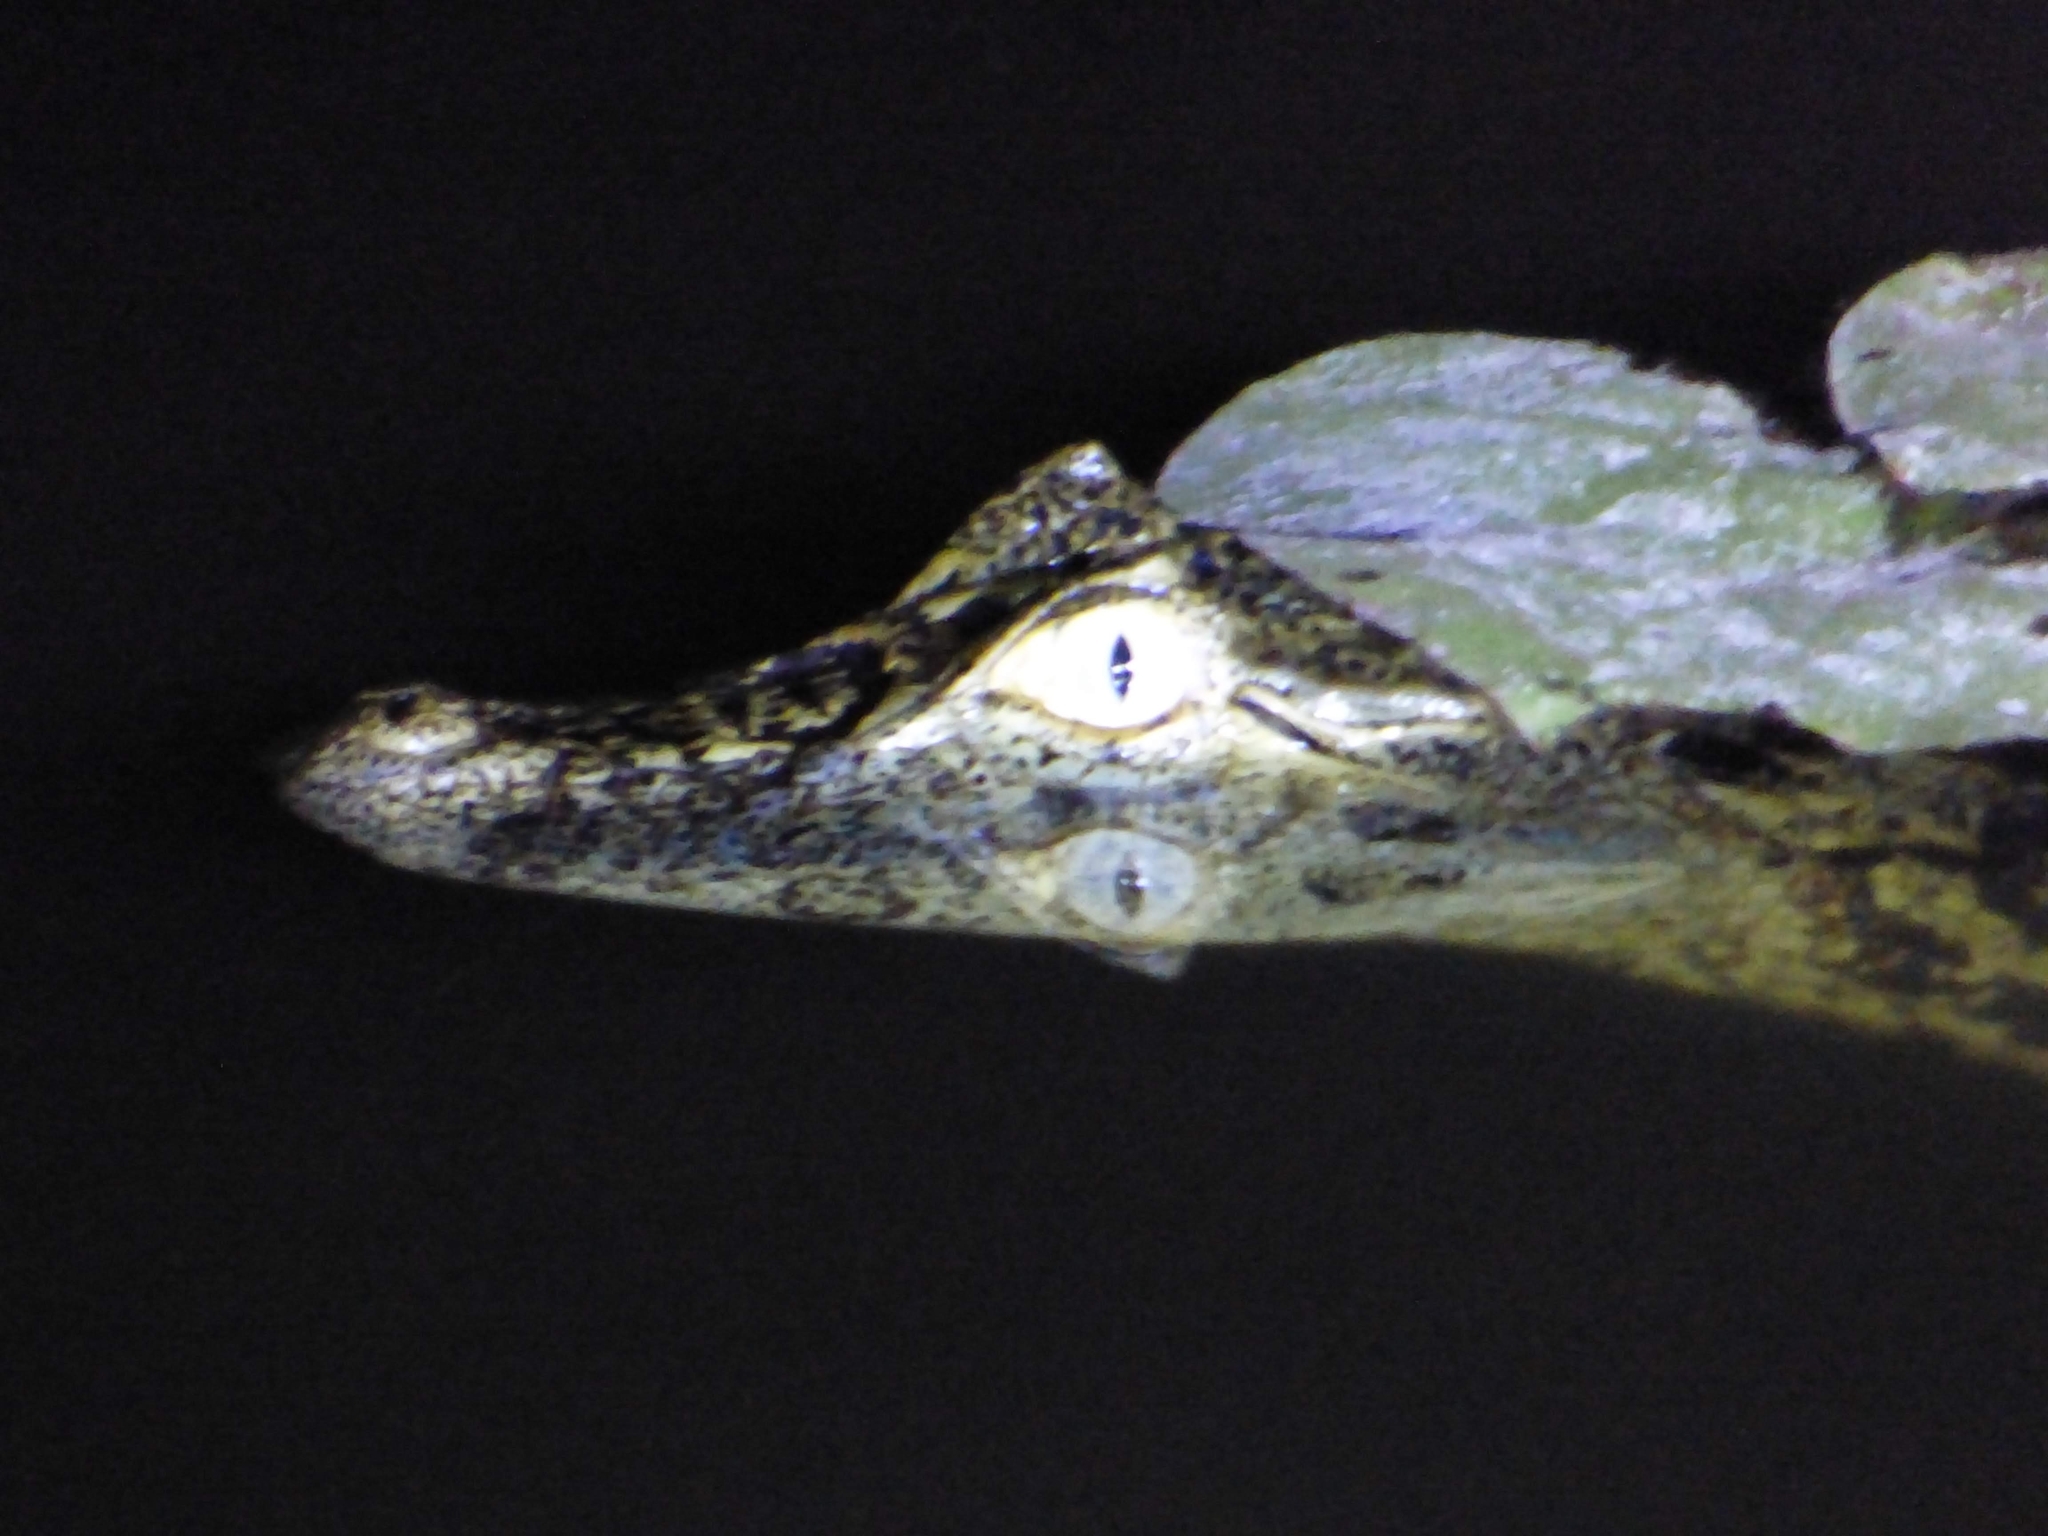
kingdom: Animalia
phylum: Chordata
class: Crocodylia
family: Alligatoridae
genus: Caiman
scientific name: Caiman yacare
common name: Yacare caiman
